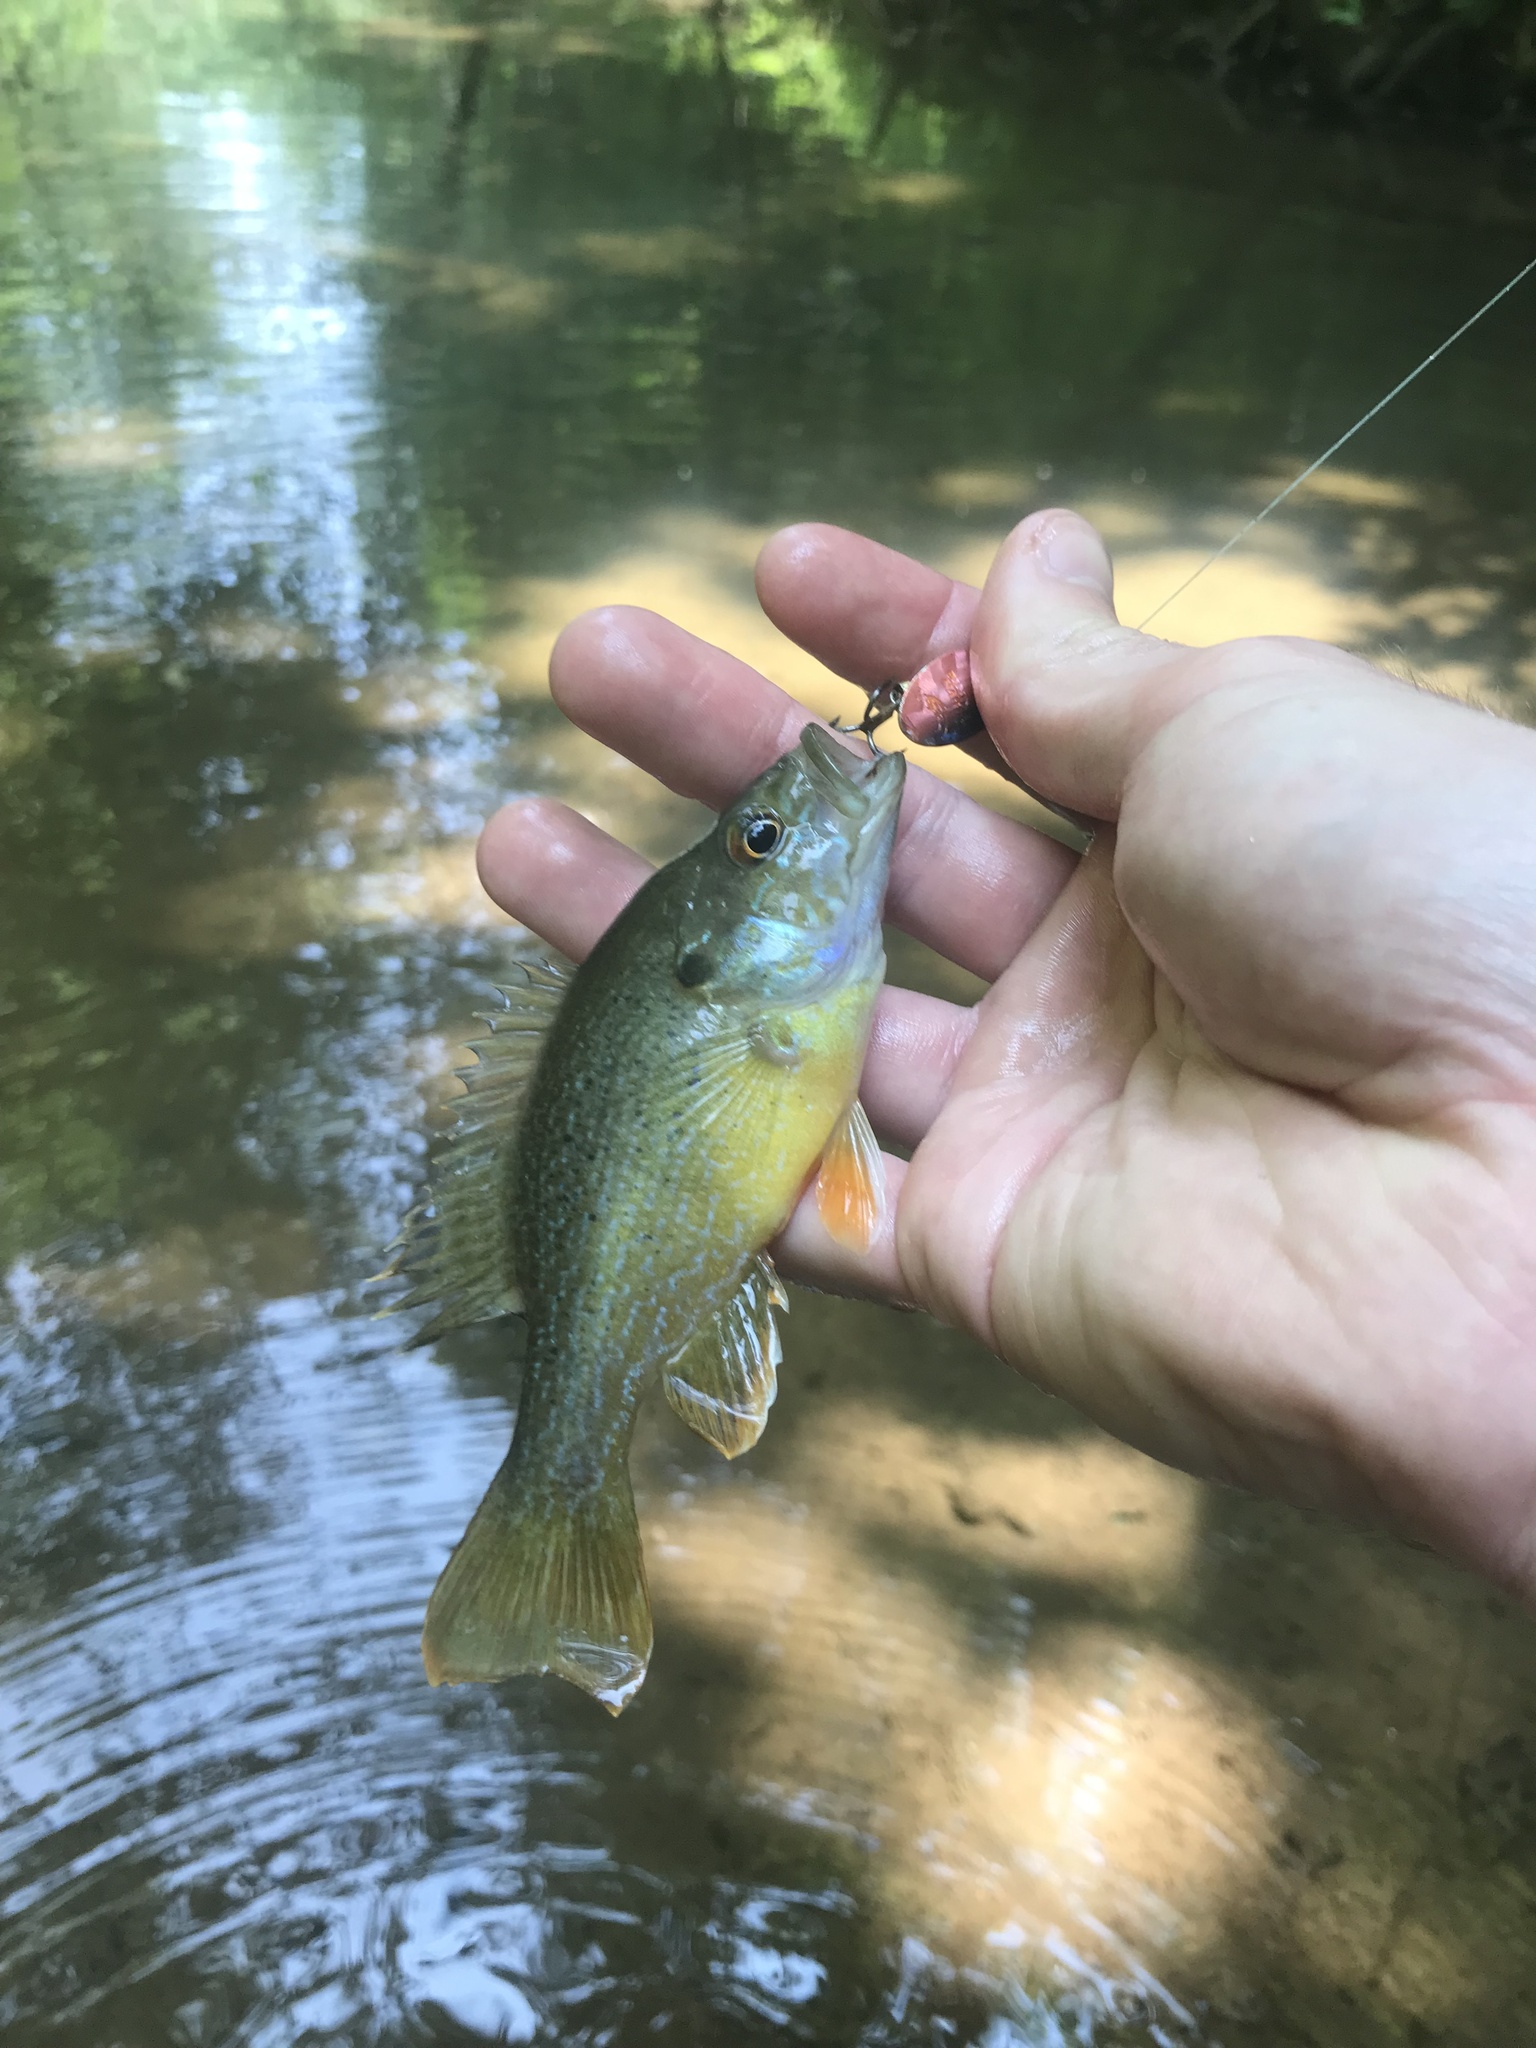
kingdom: Animalia
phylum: Chordata
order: Perciformes
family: Centrarchidae
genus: Lepomis
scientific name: Lepomis cyanellus
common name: Green sunfish
